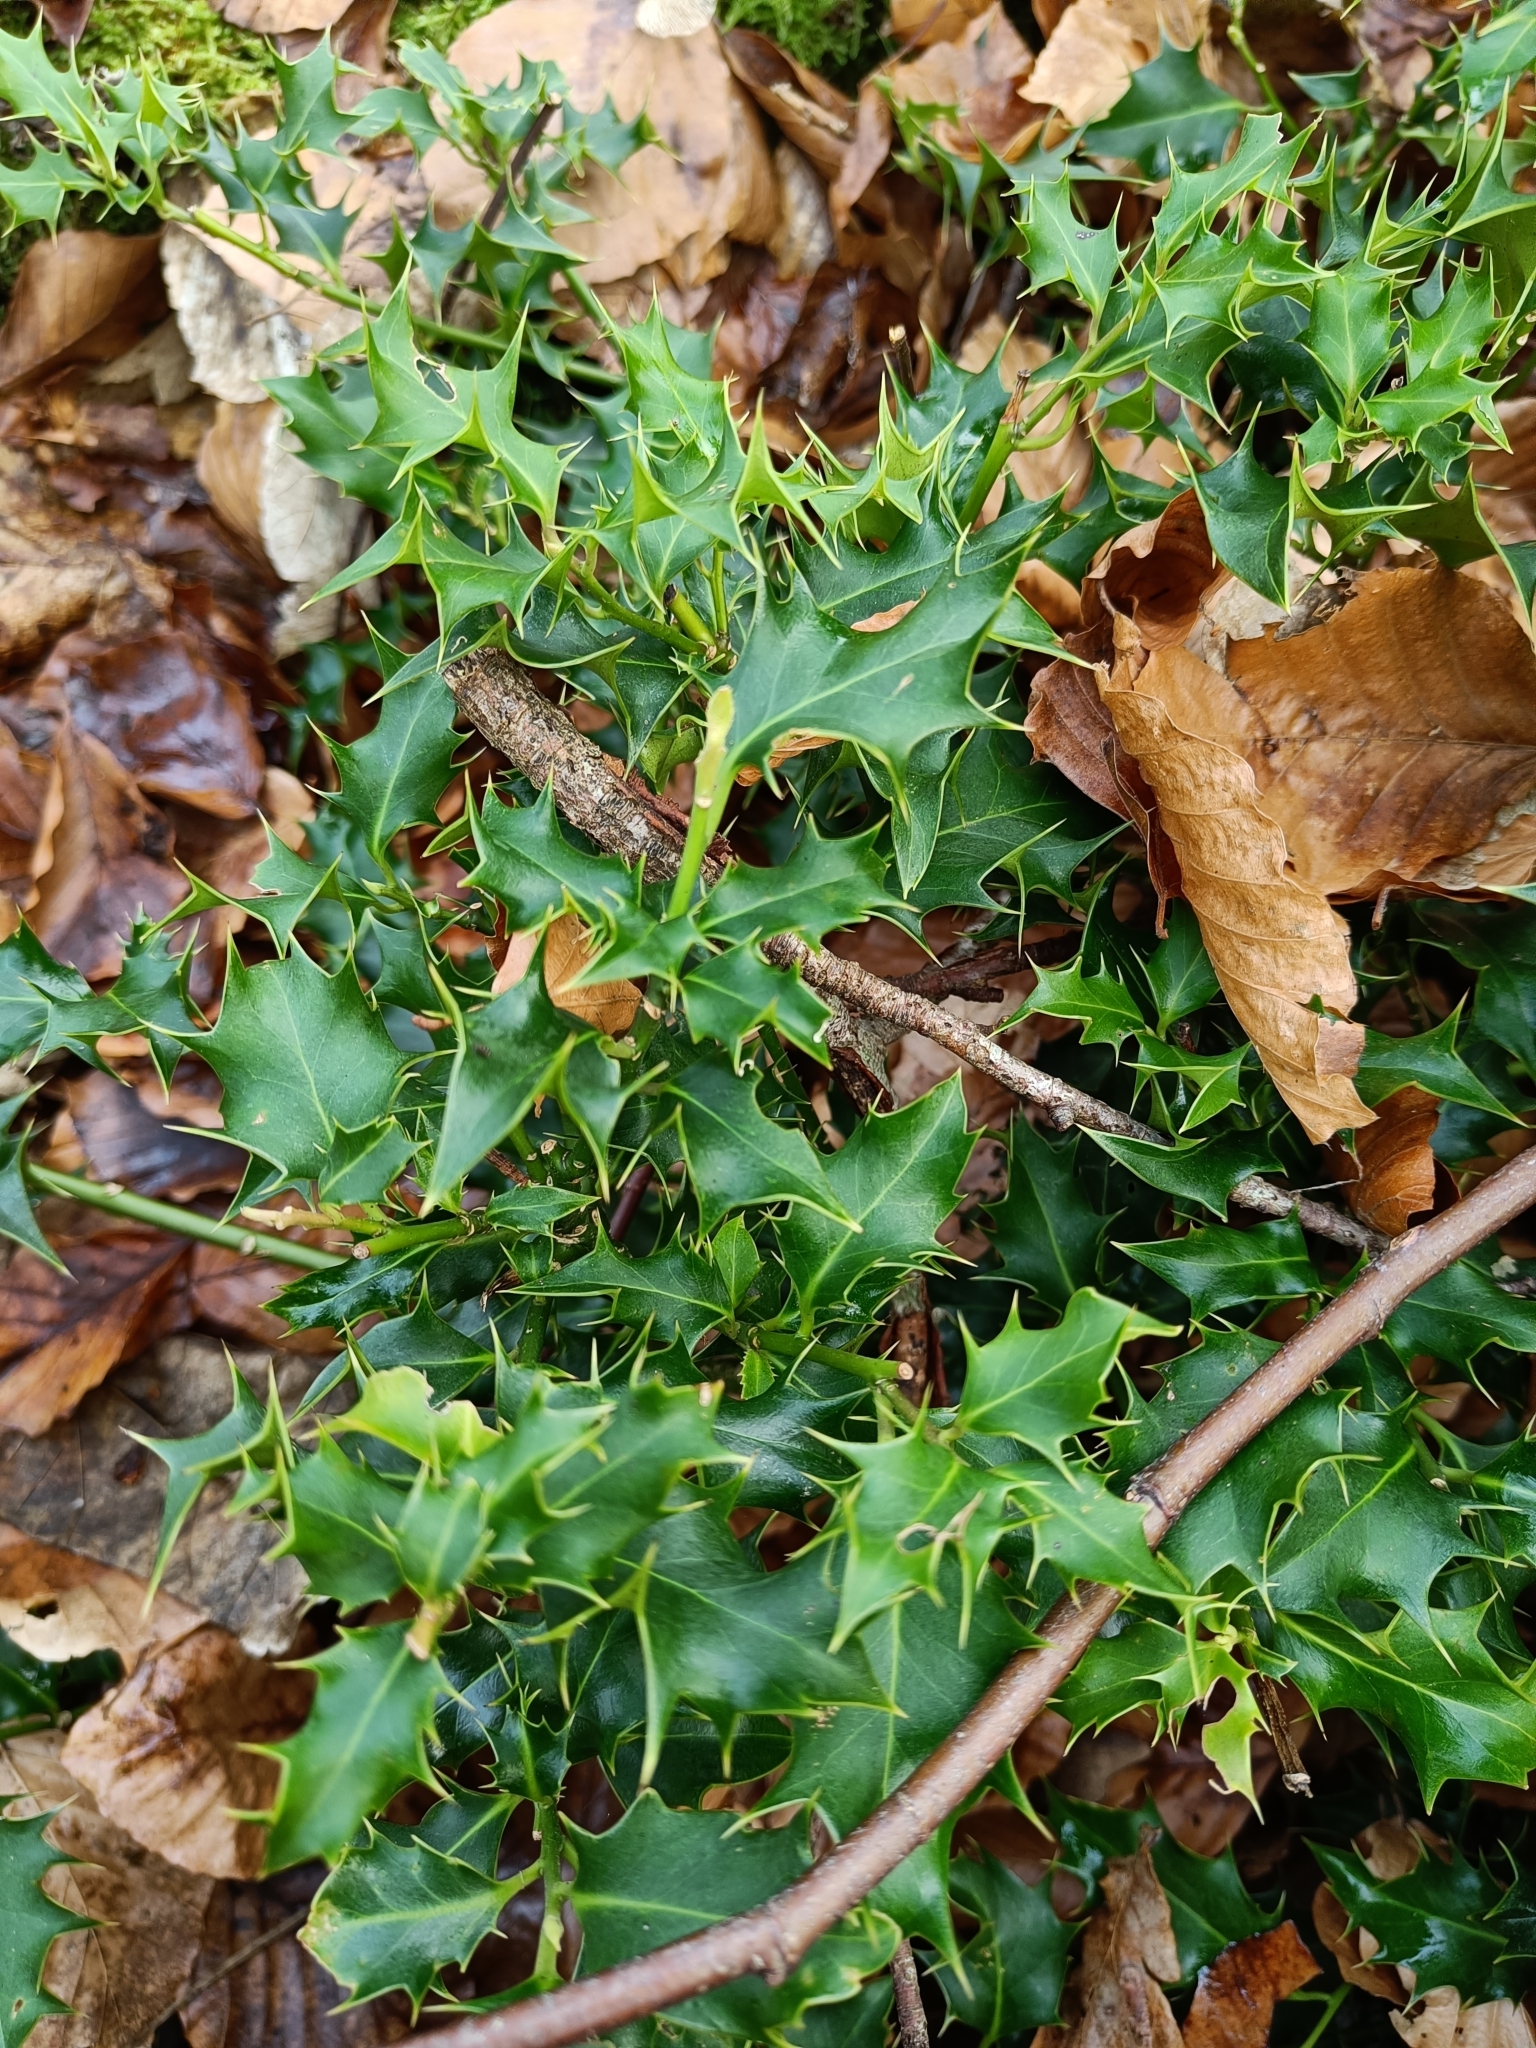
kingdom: Plantae
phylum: Tracheophyta
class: Magnoliopsida
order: Aquifoliales
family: Aquifoliaceae
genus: Ilex
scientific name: Ilex aquifolium
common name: English holly
